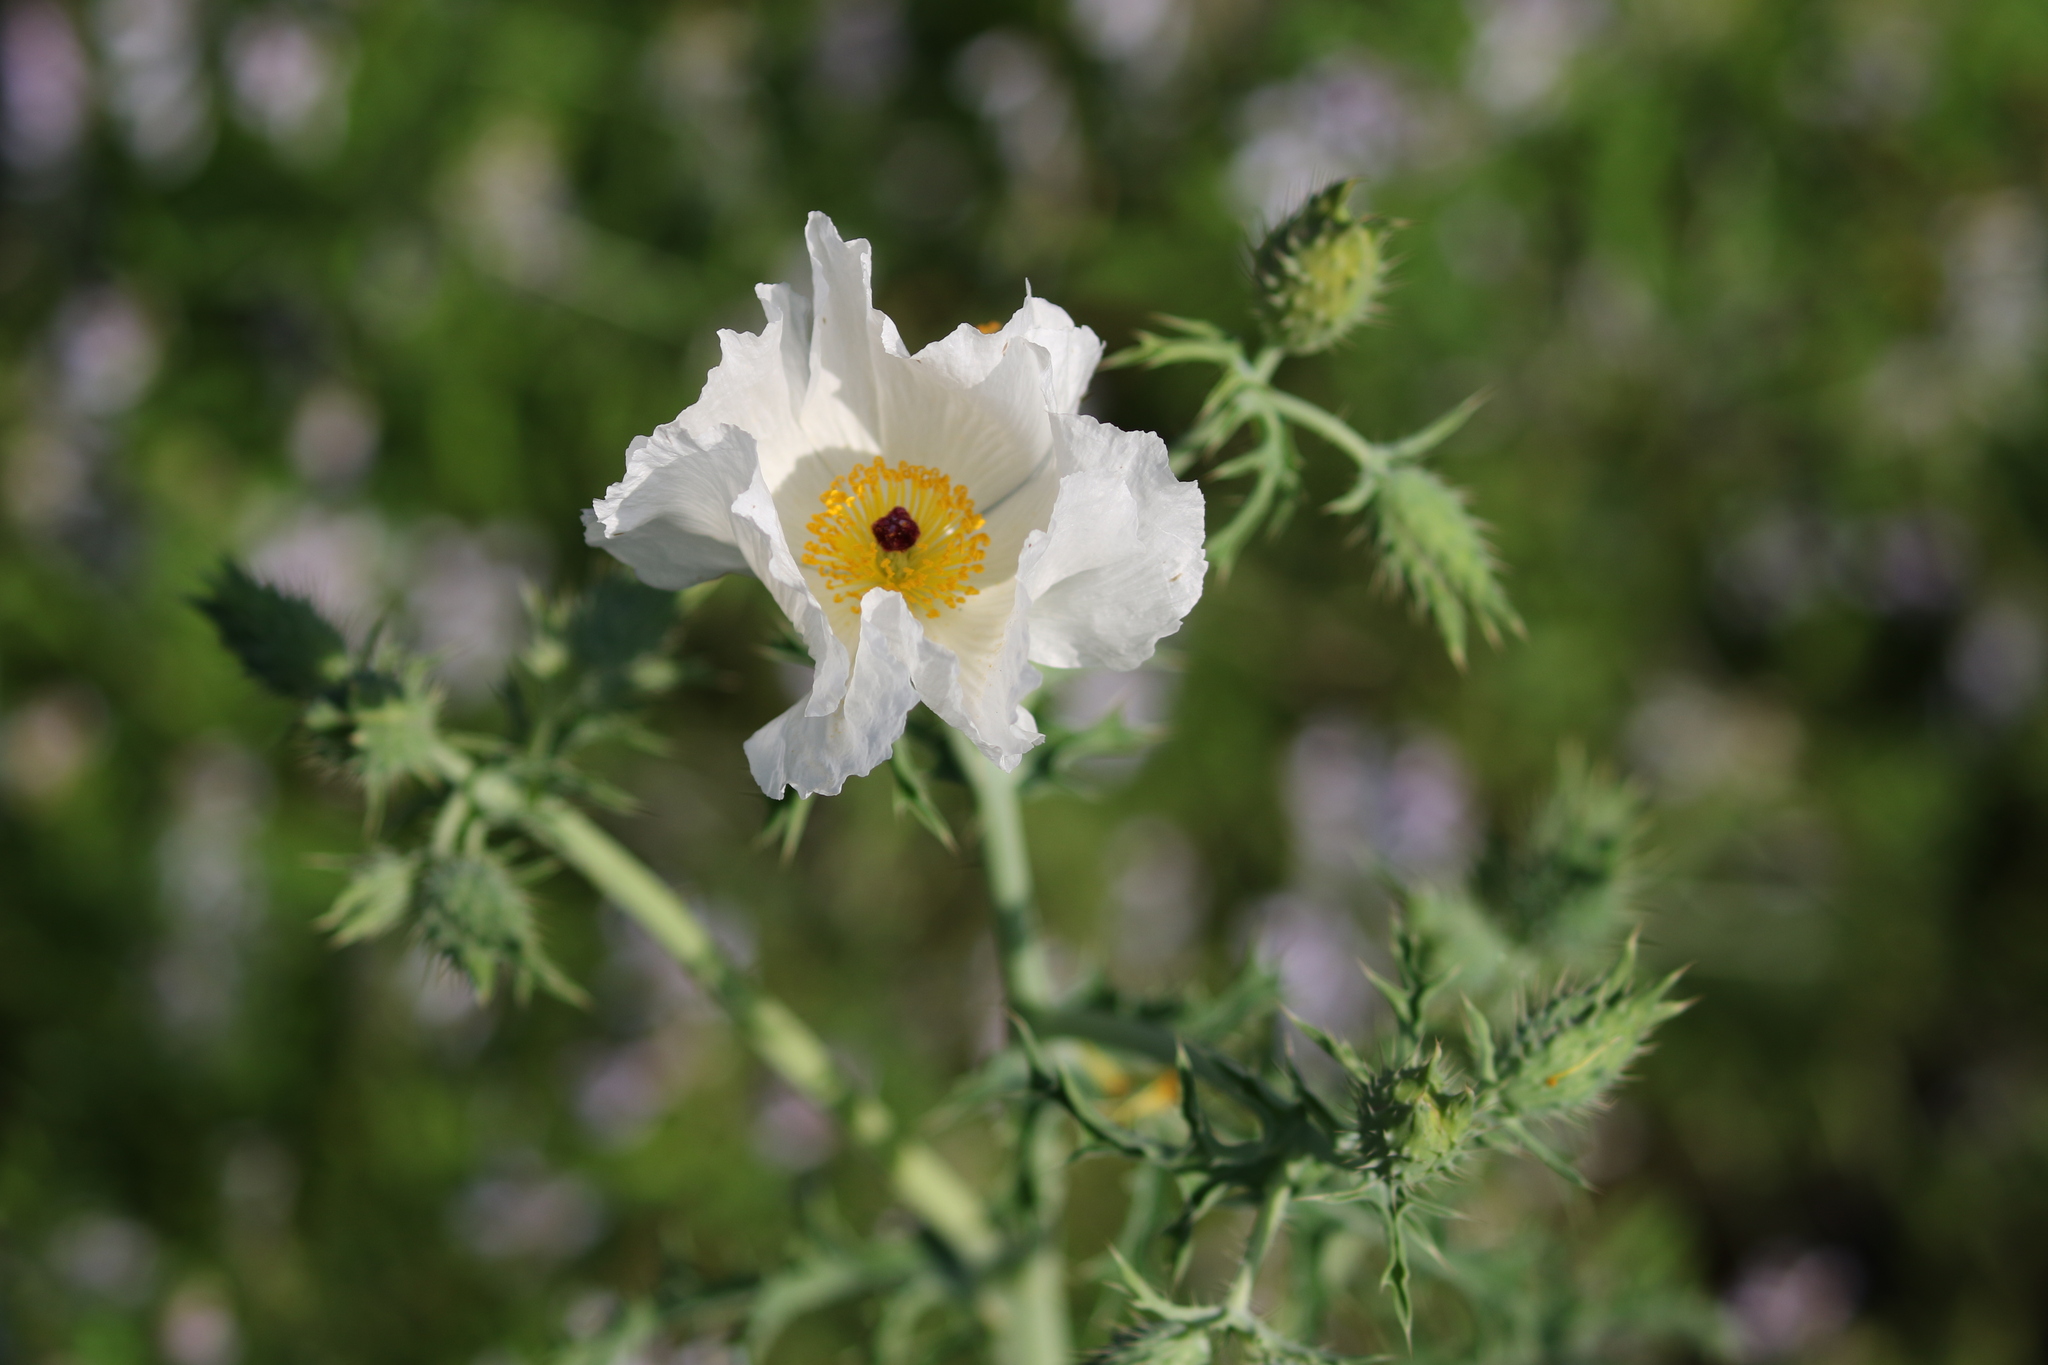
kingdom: Plantae
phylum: Tracheophyta
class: Magnoliopsida
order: Ranunculales
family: Papaveraceae
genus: Argemone
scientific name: Argemone albiflora
